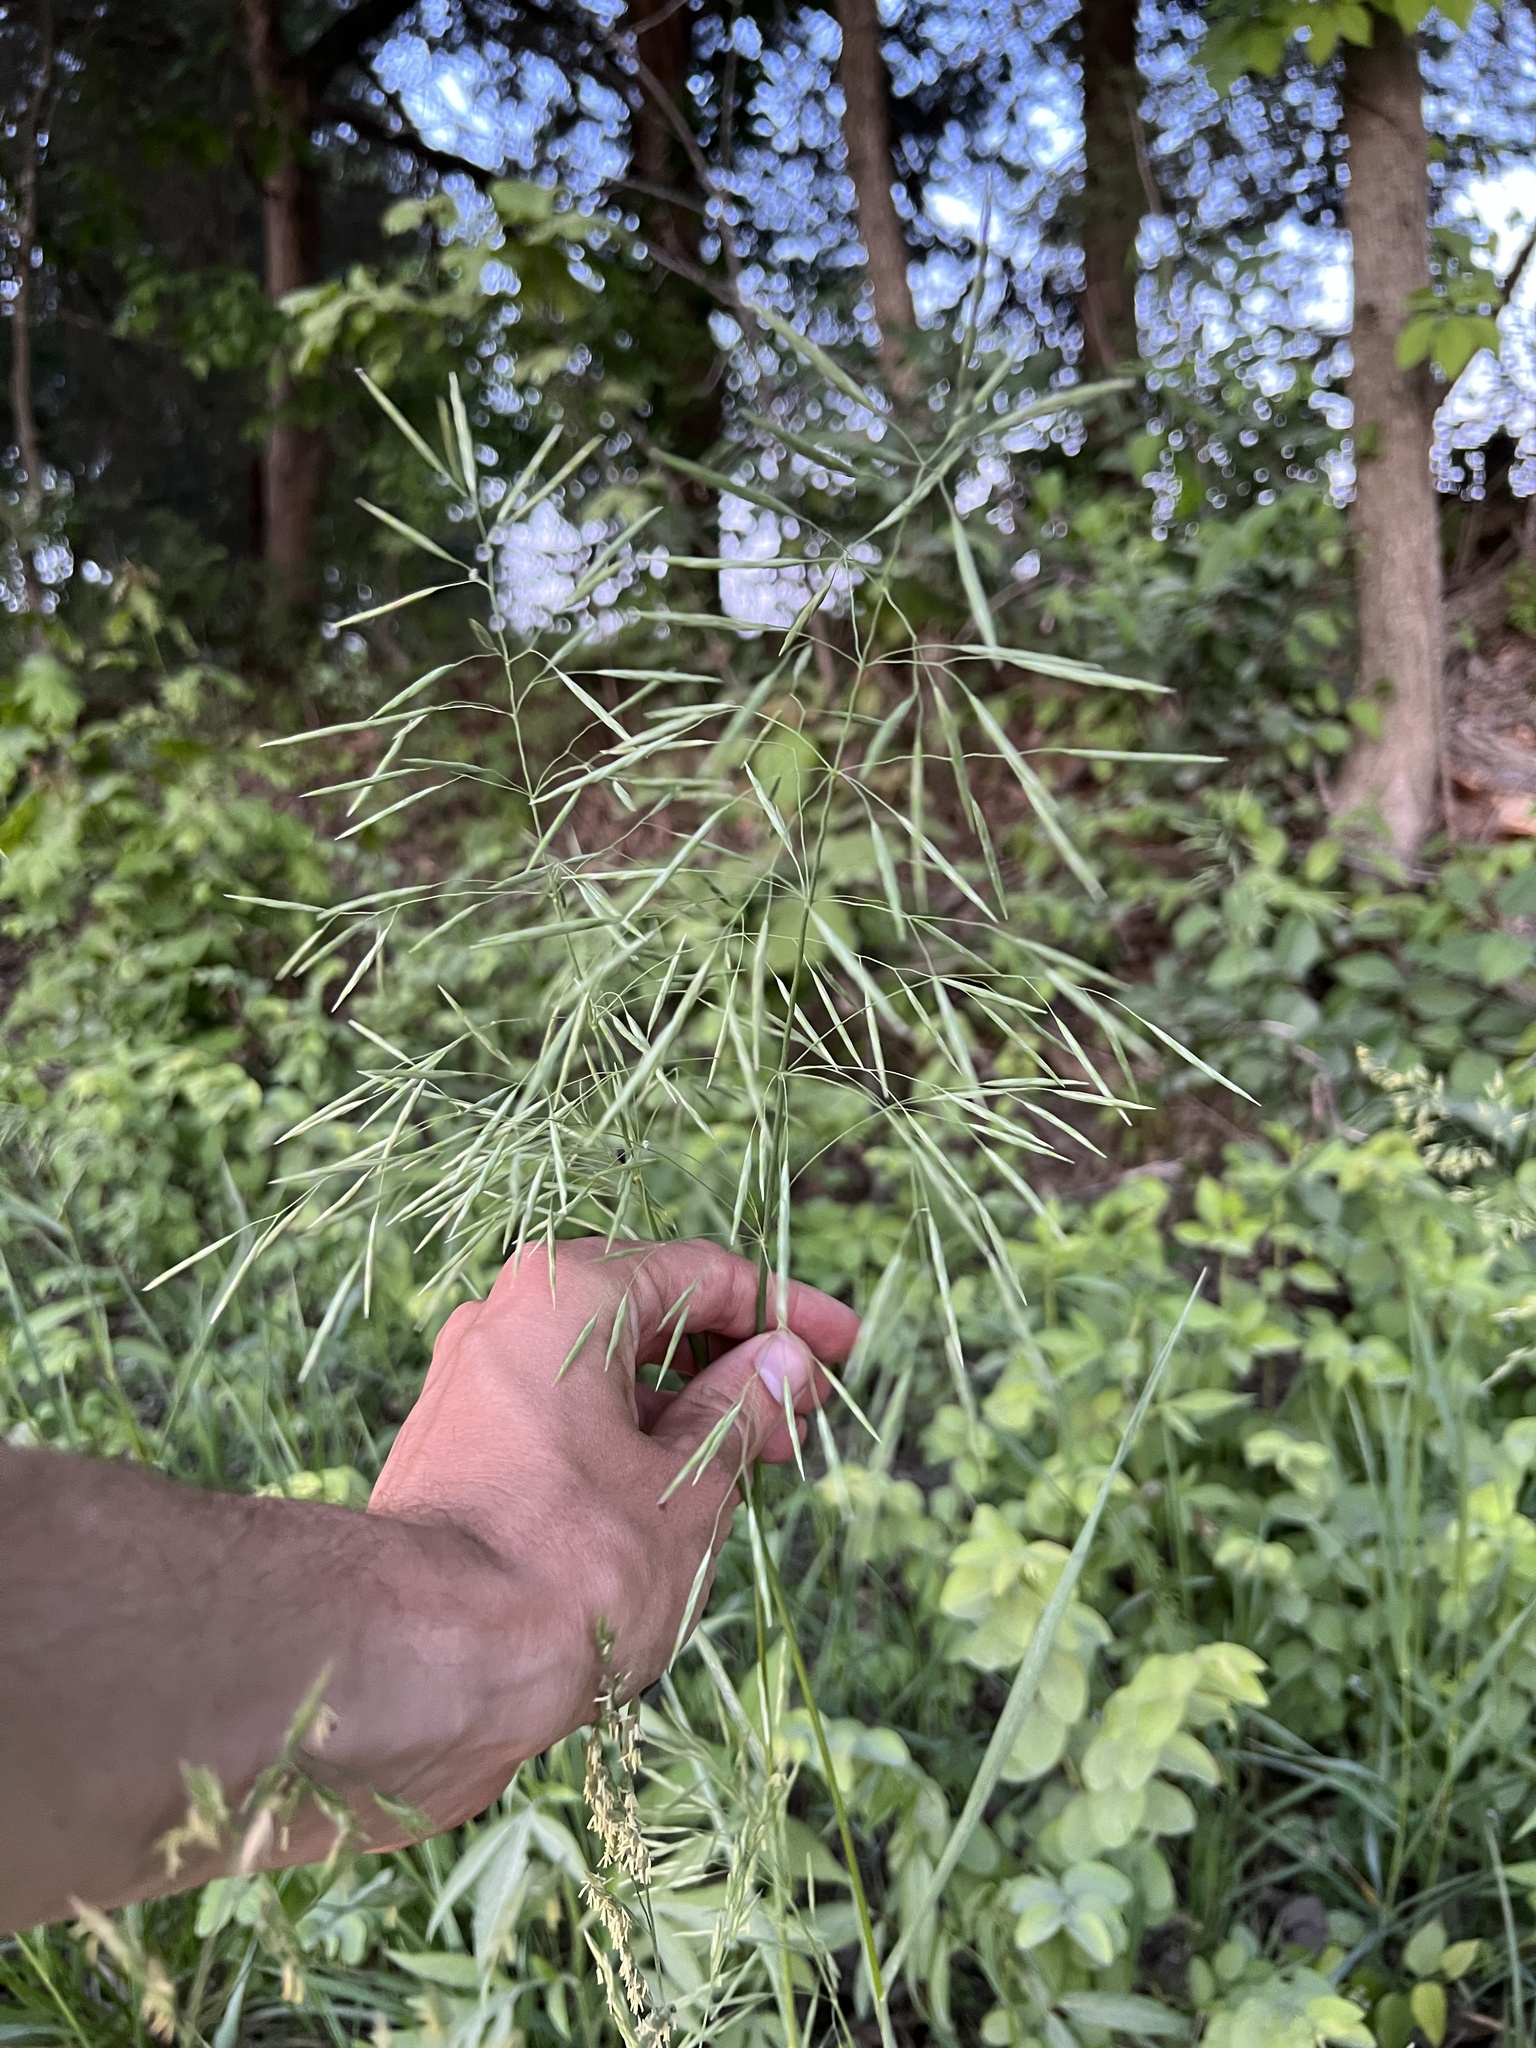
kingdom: Plantae
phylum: Tracheophyta
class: Liliopsida
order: Poales
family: Poaceae
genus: Bromus
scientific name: Bromus inermis
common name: Smooth brome
